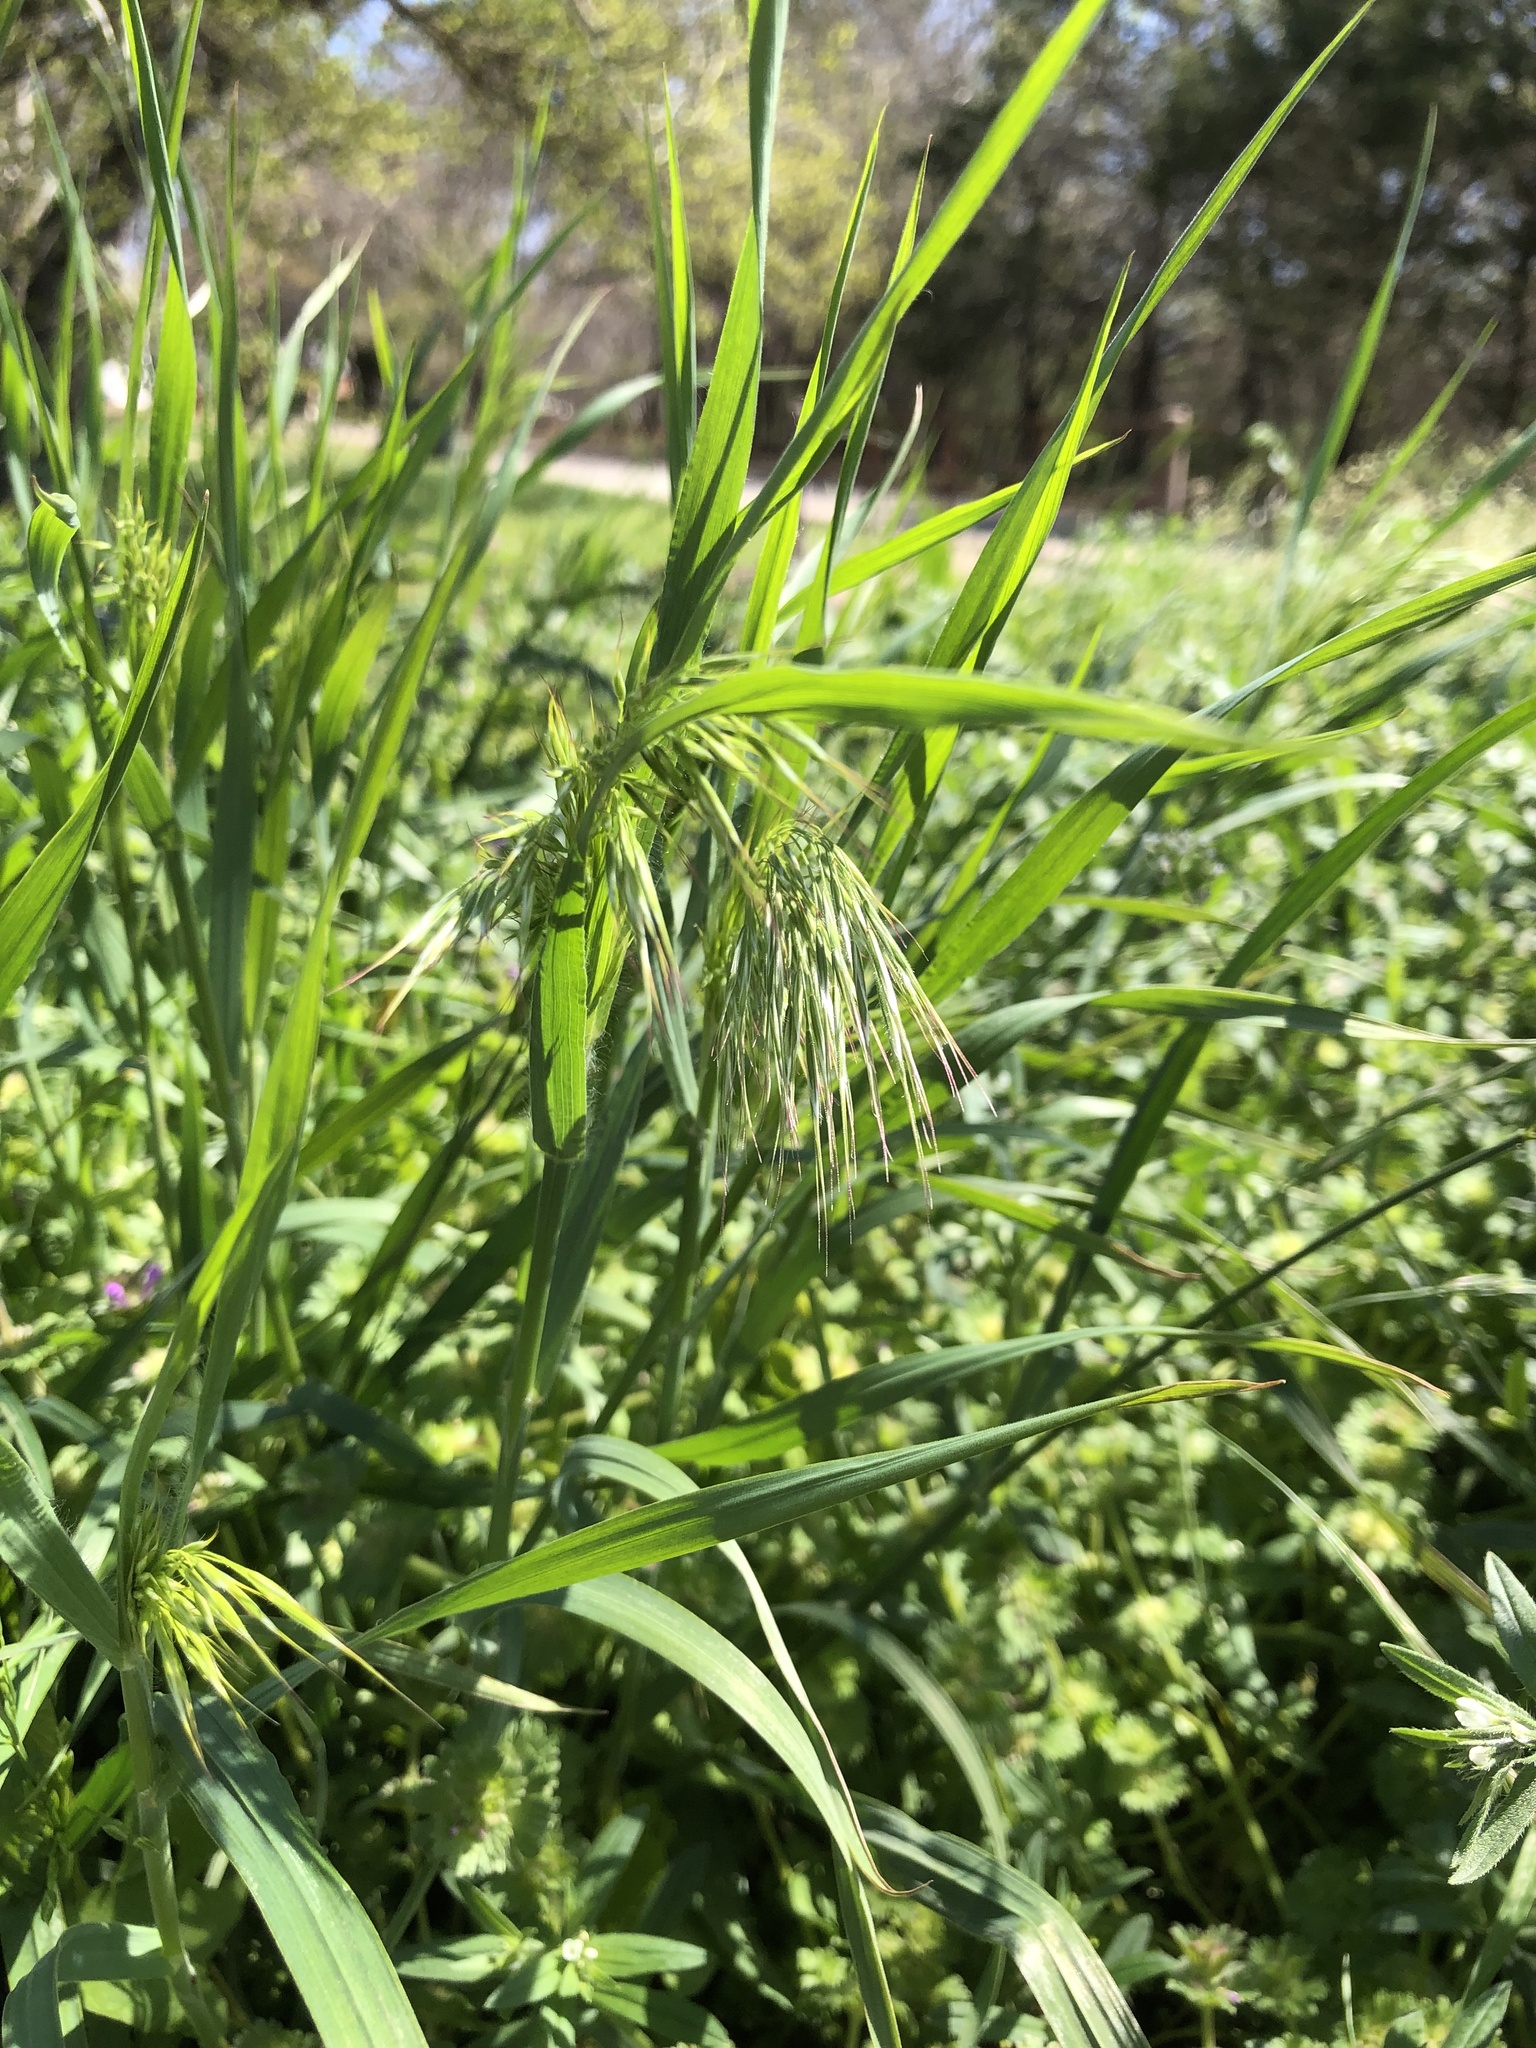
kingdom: Plantae
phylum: Tracheophyta
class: Liliopsida
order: Poales
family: Poaceae
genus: Bromus
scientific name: Bromus tectorum
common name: Cheatgrass
